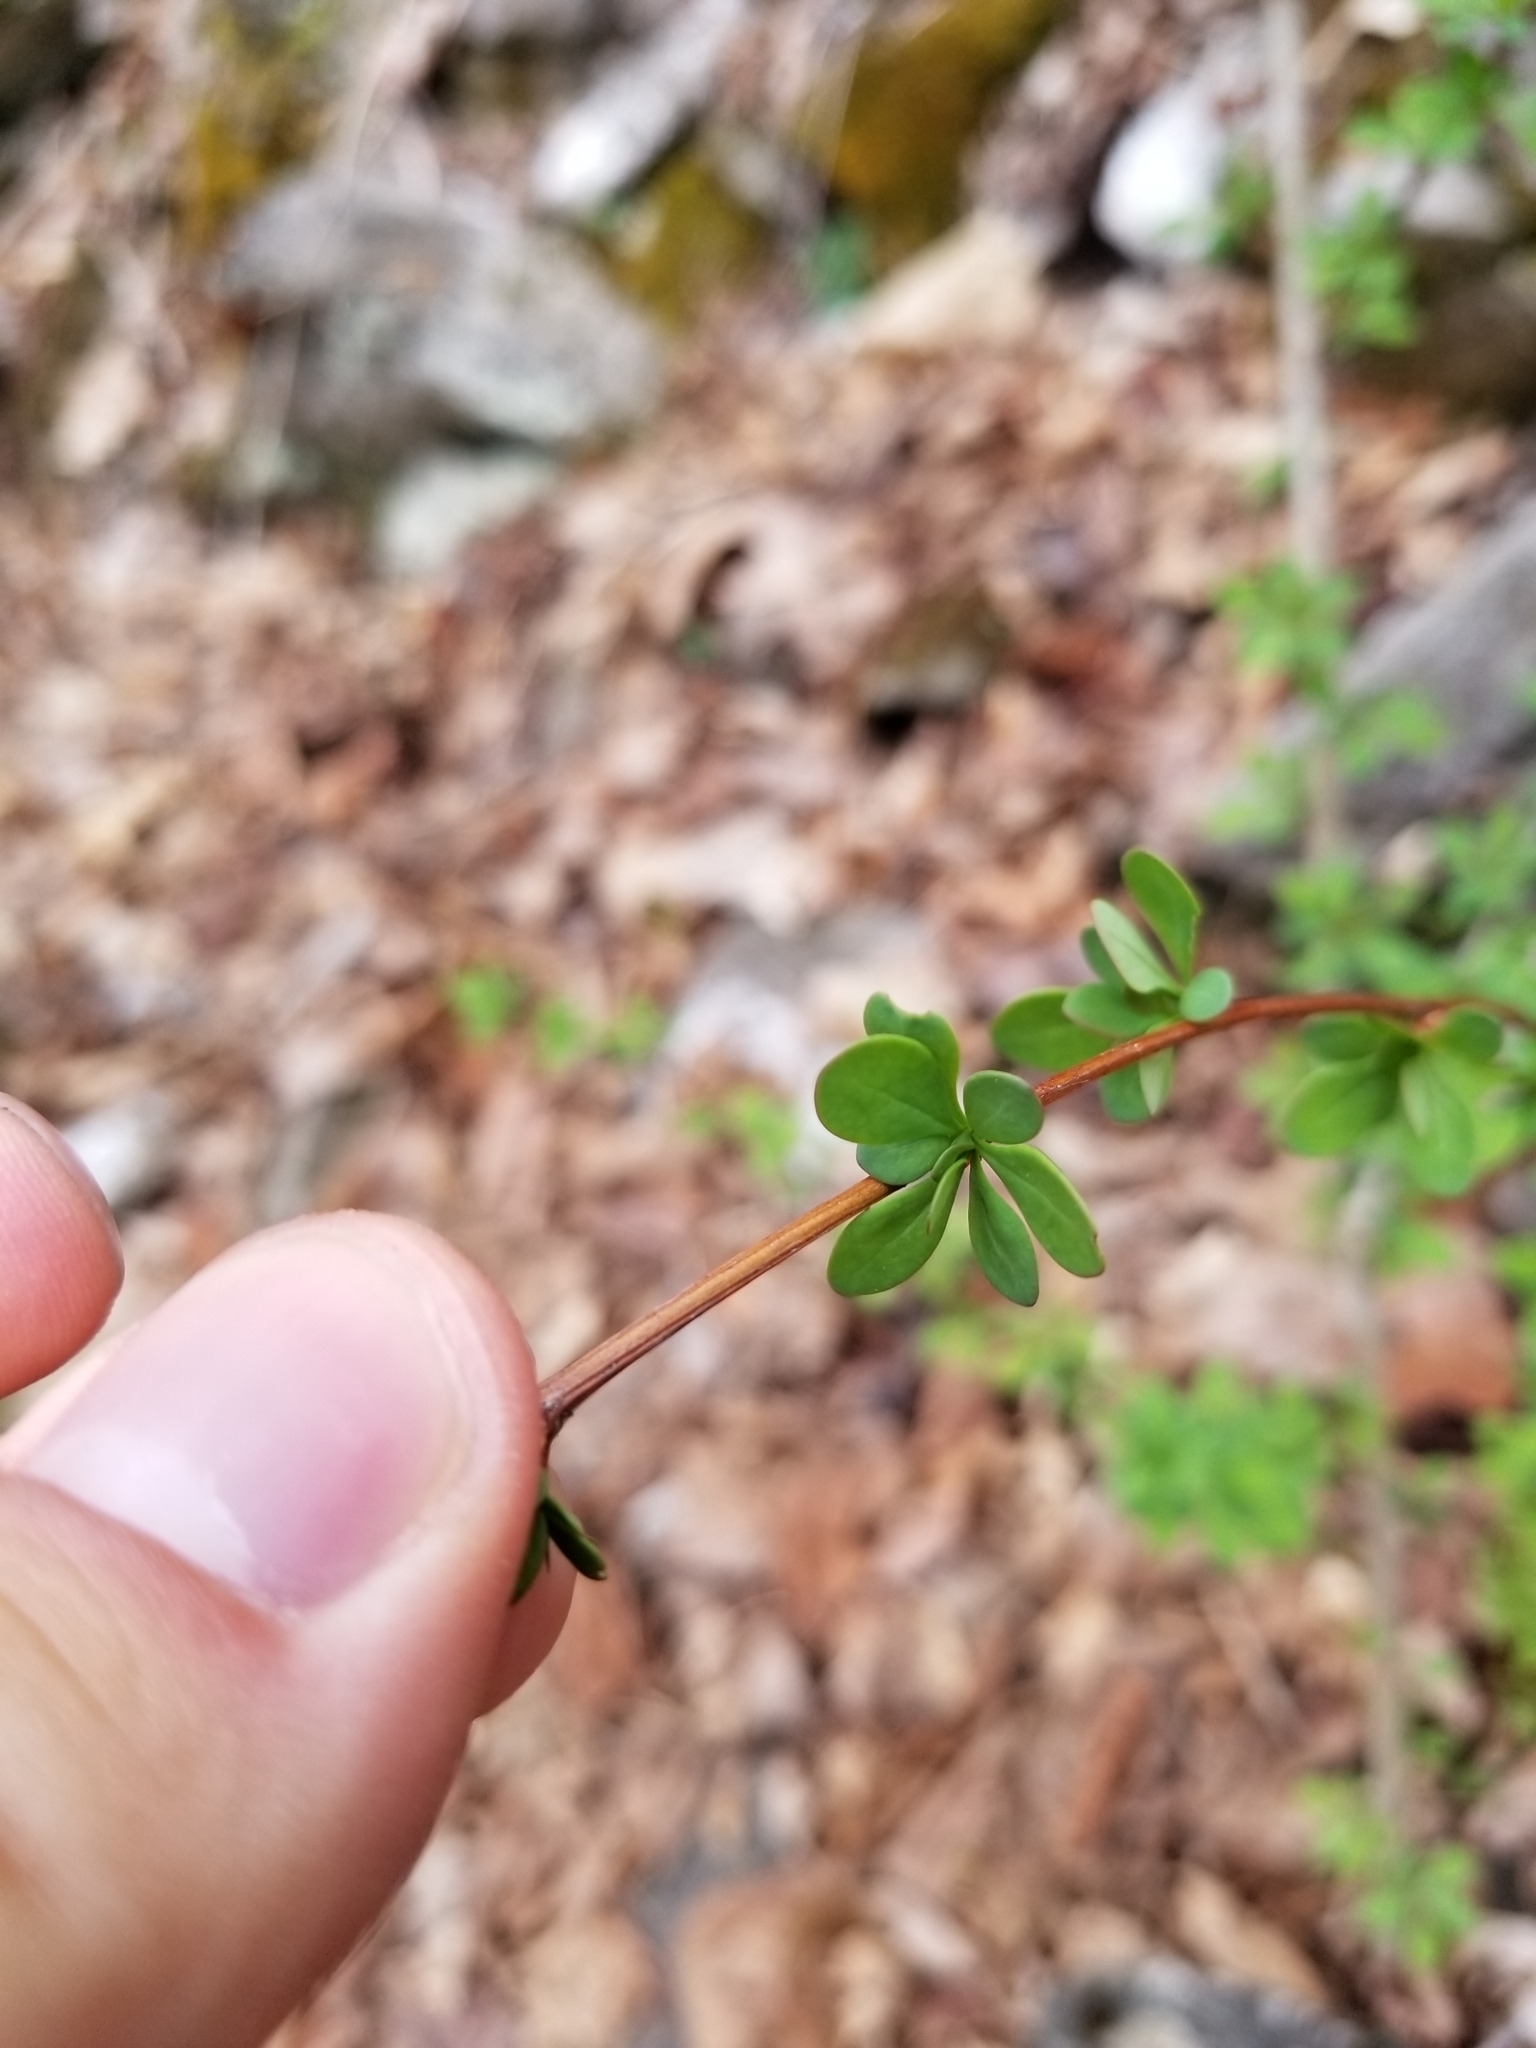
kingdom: Plantae
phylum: Tracheophyta
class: Magnoliopsida
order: Ranunculales
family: Berberidaceae
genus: Berberis
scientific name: Berberis thunbergii
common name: Japanese barberry
